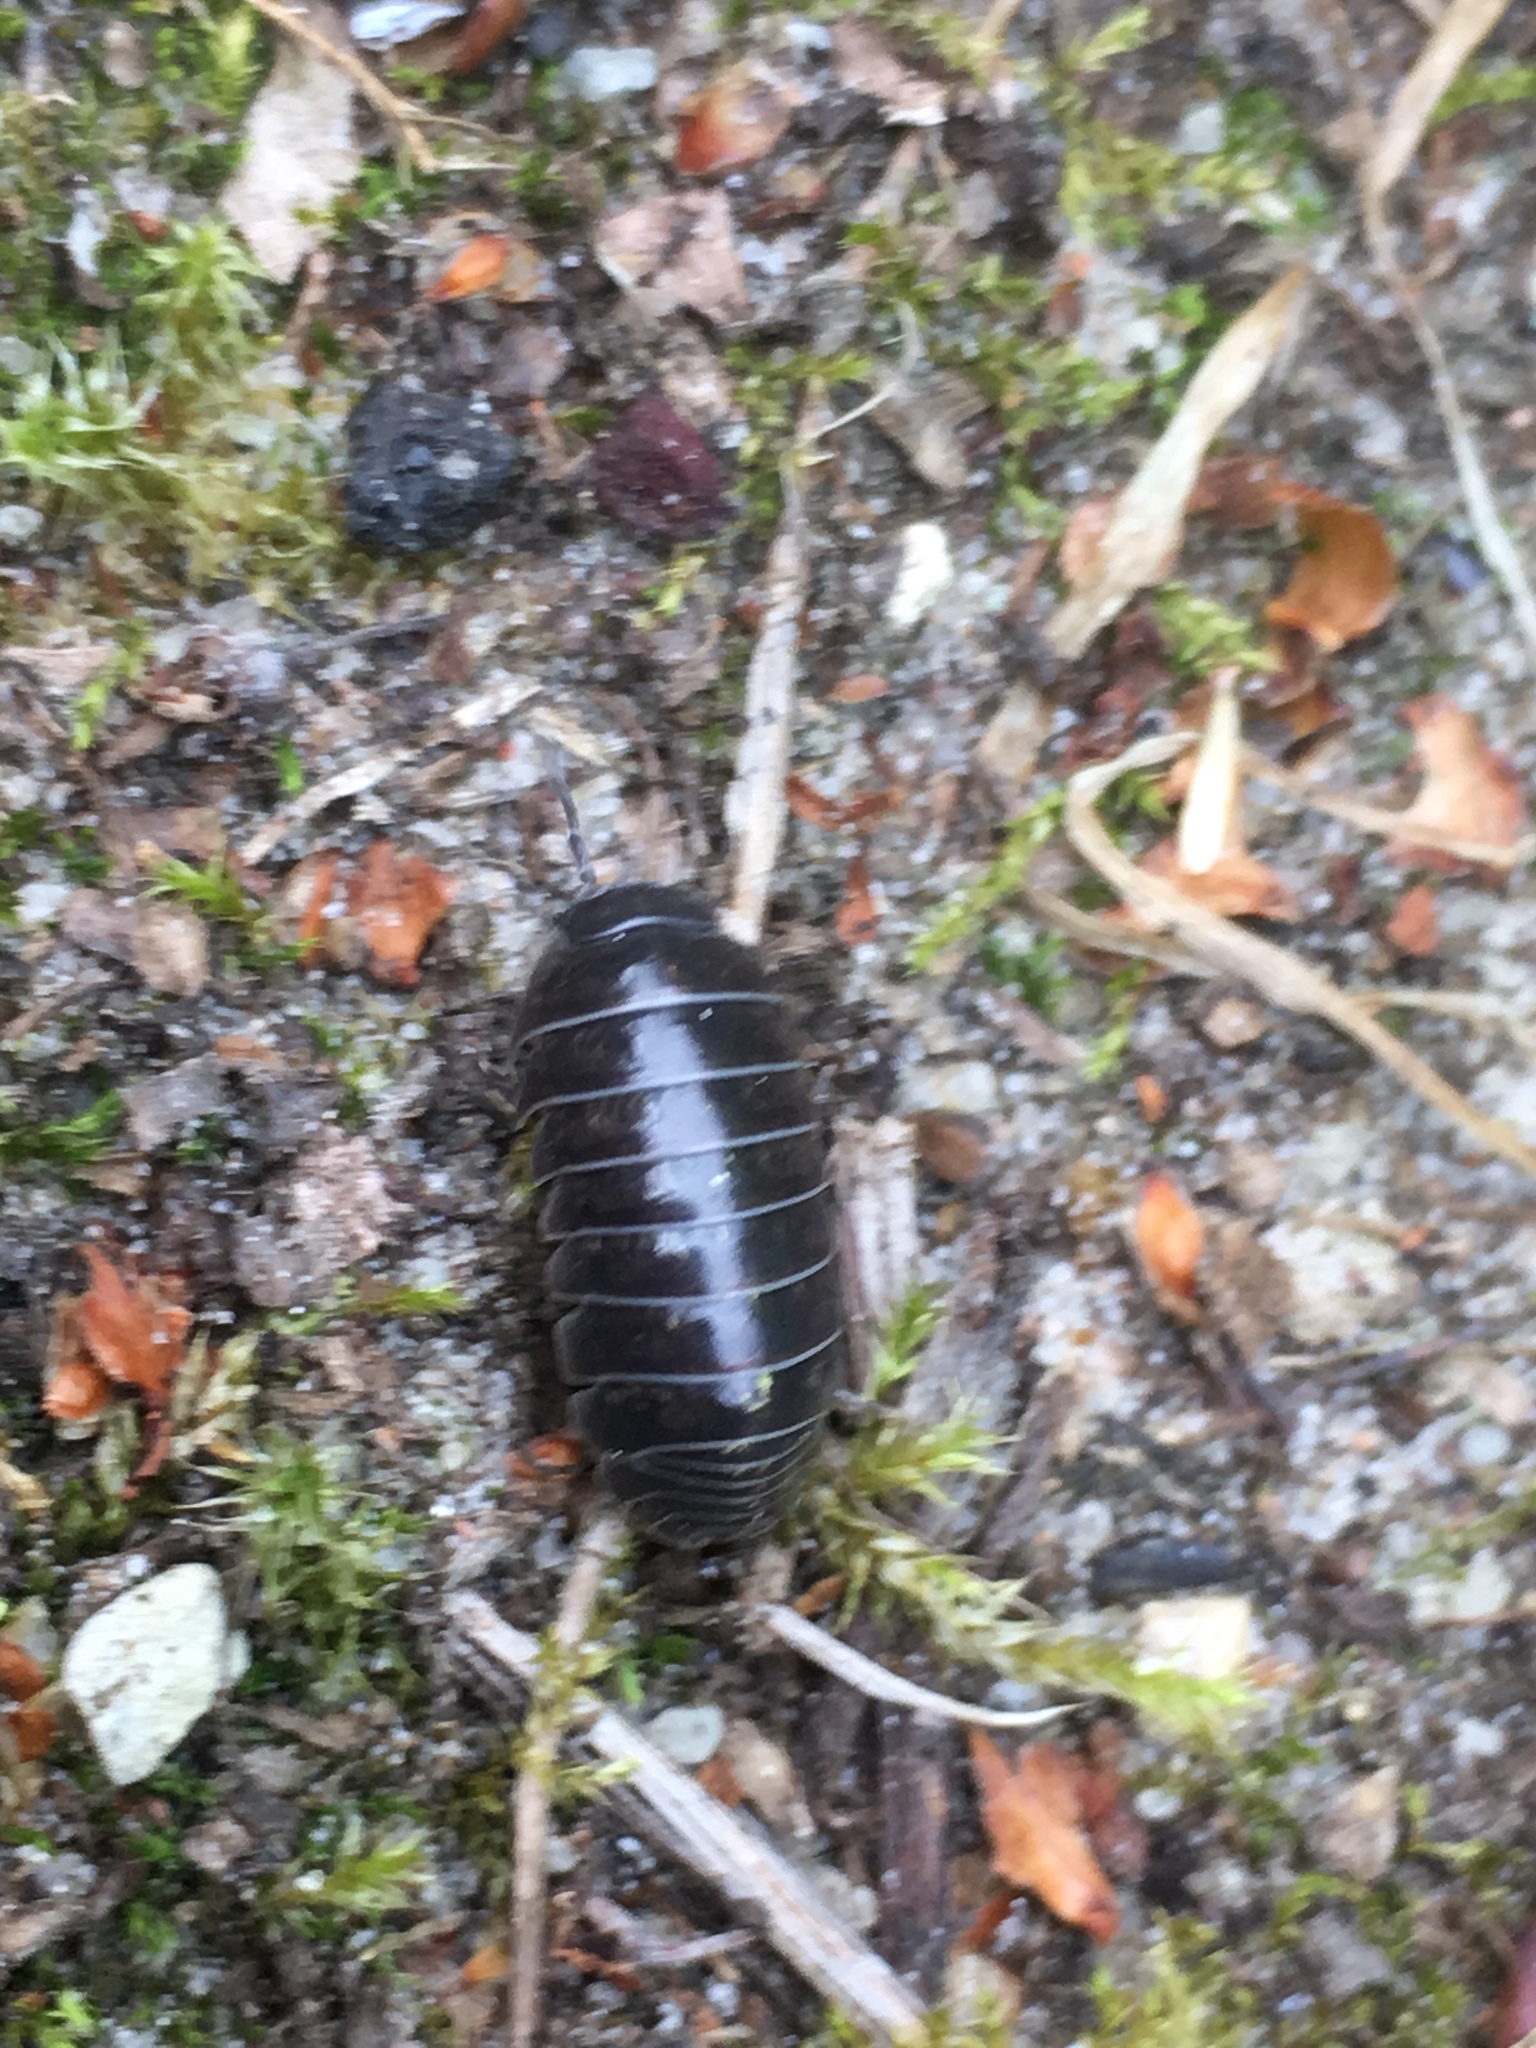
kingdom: Animalia
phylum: Arthropoda
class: Malacostraca
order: Isopoda
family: Armadillidiidae
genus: Armadillidium
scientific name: Armadillidium vulgare
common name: Common pill woodlouse
